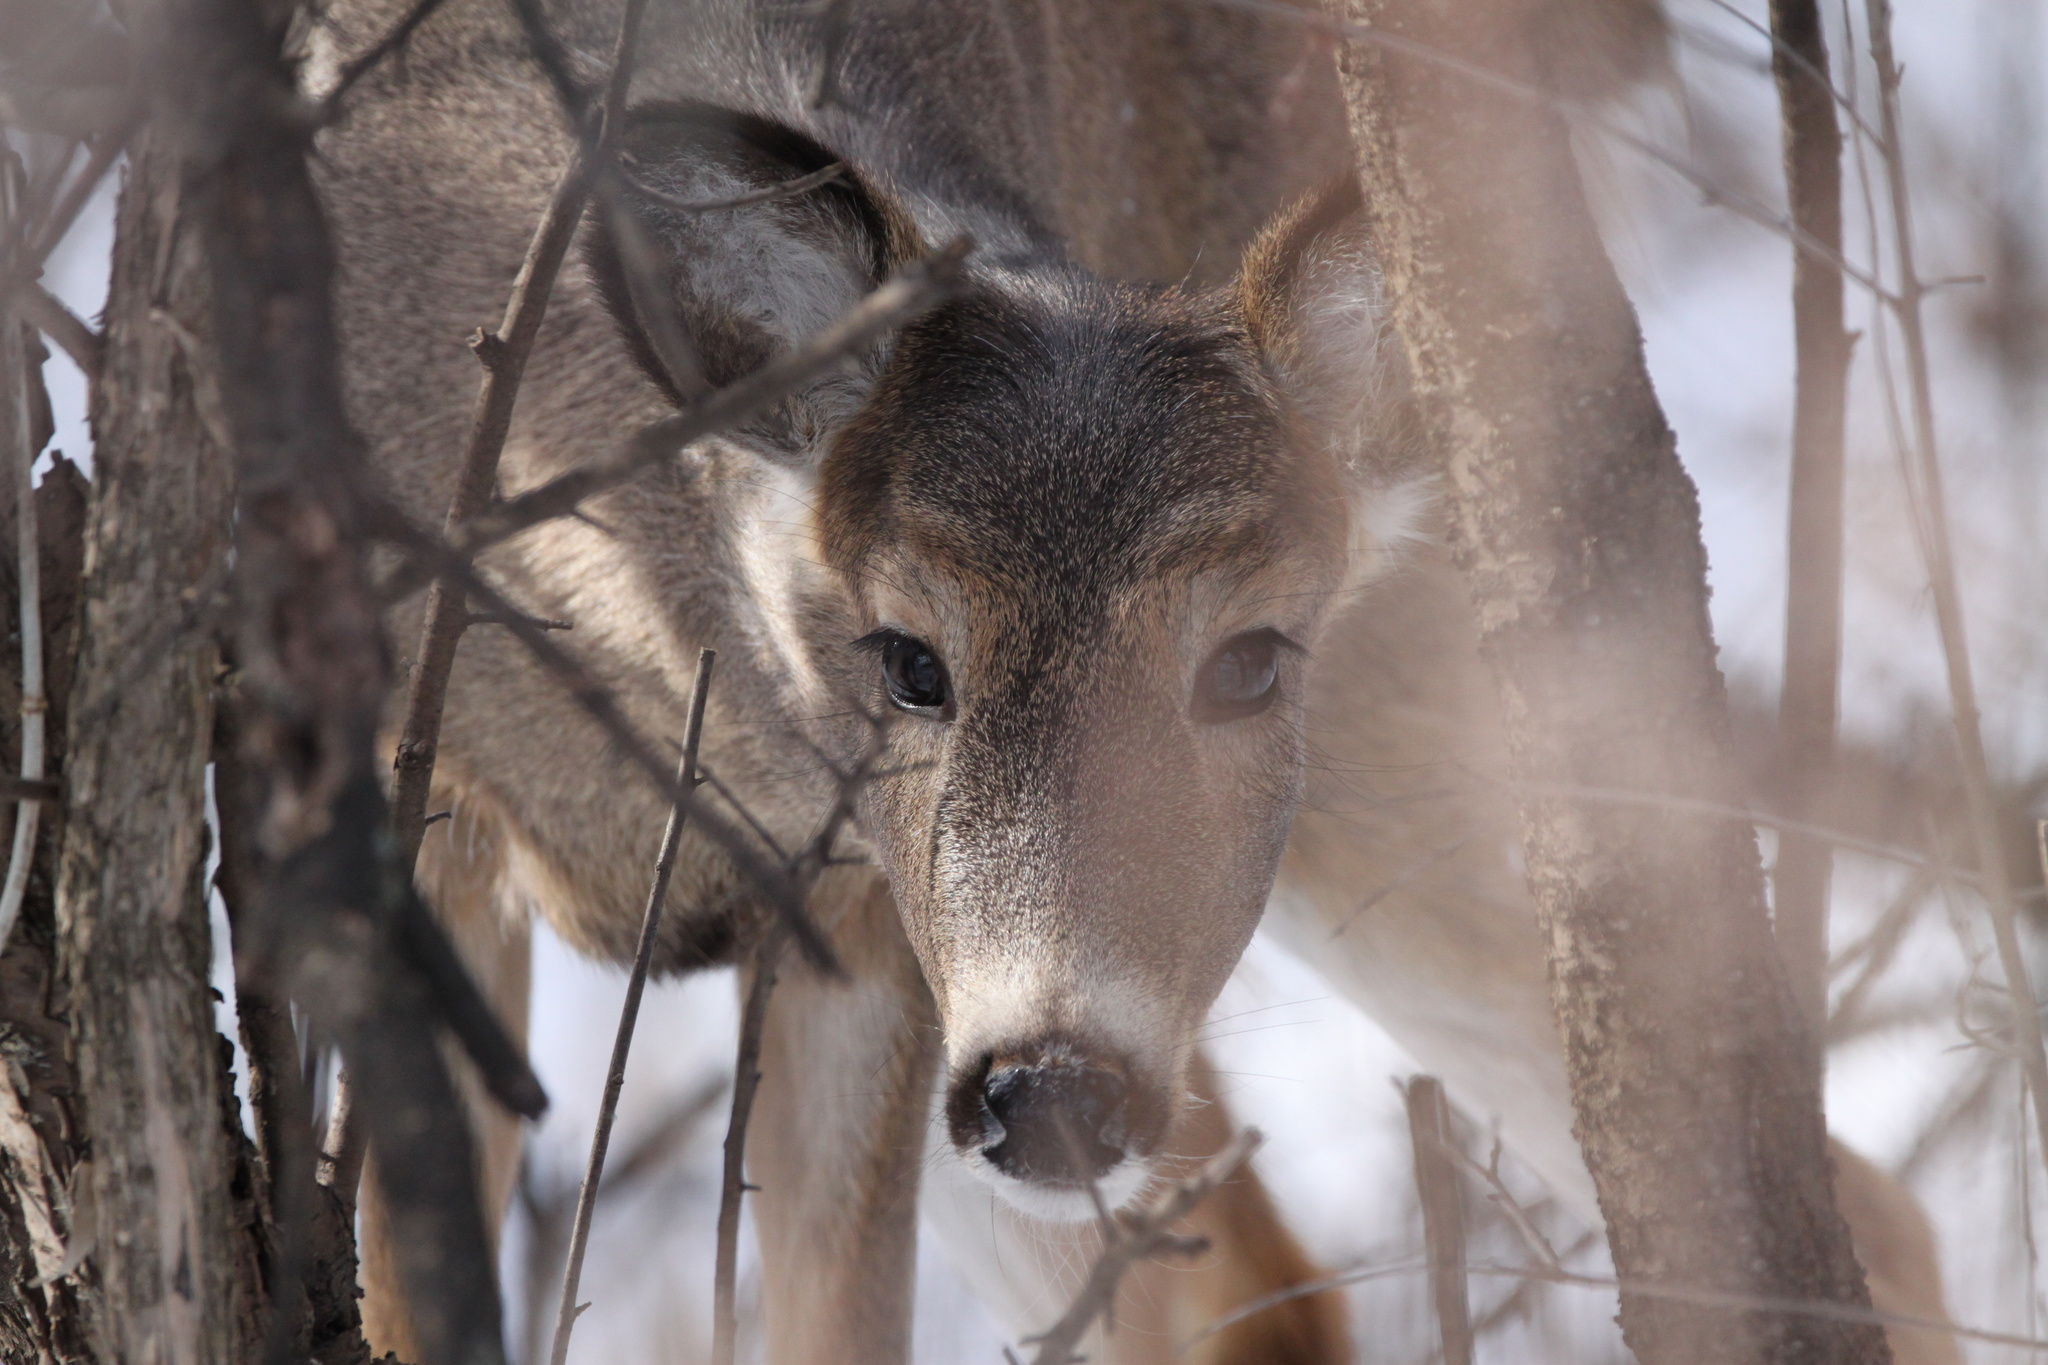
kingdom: Animalia
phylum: Chordata
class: Mammalia
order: Artiodactyla
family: Cervidae
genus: Odocoileus
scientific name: Odocoileus virginianus
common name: White-tailed deer
